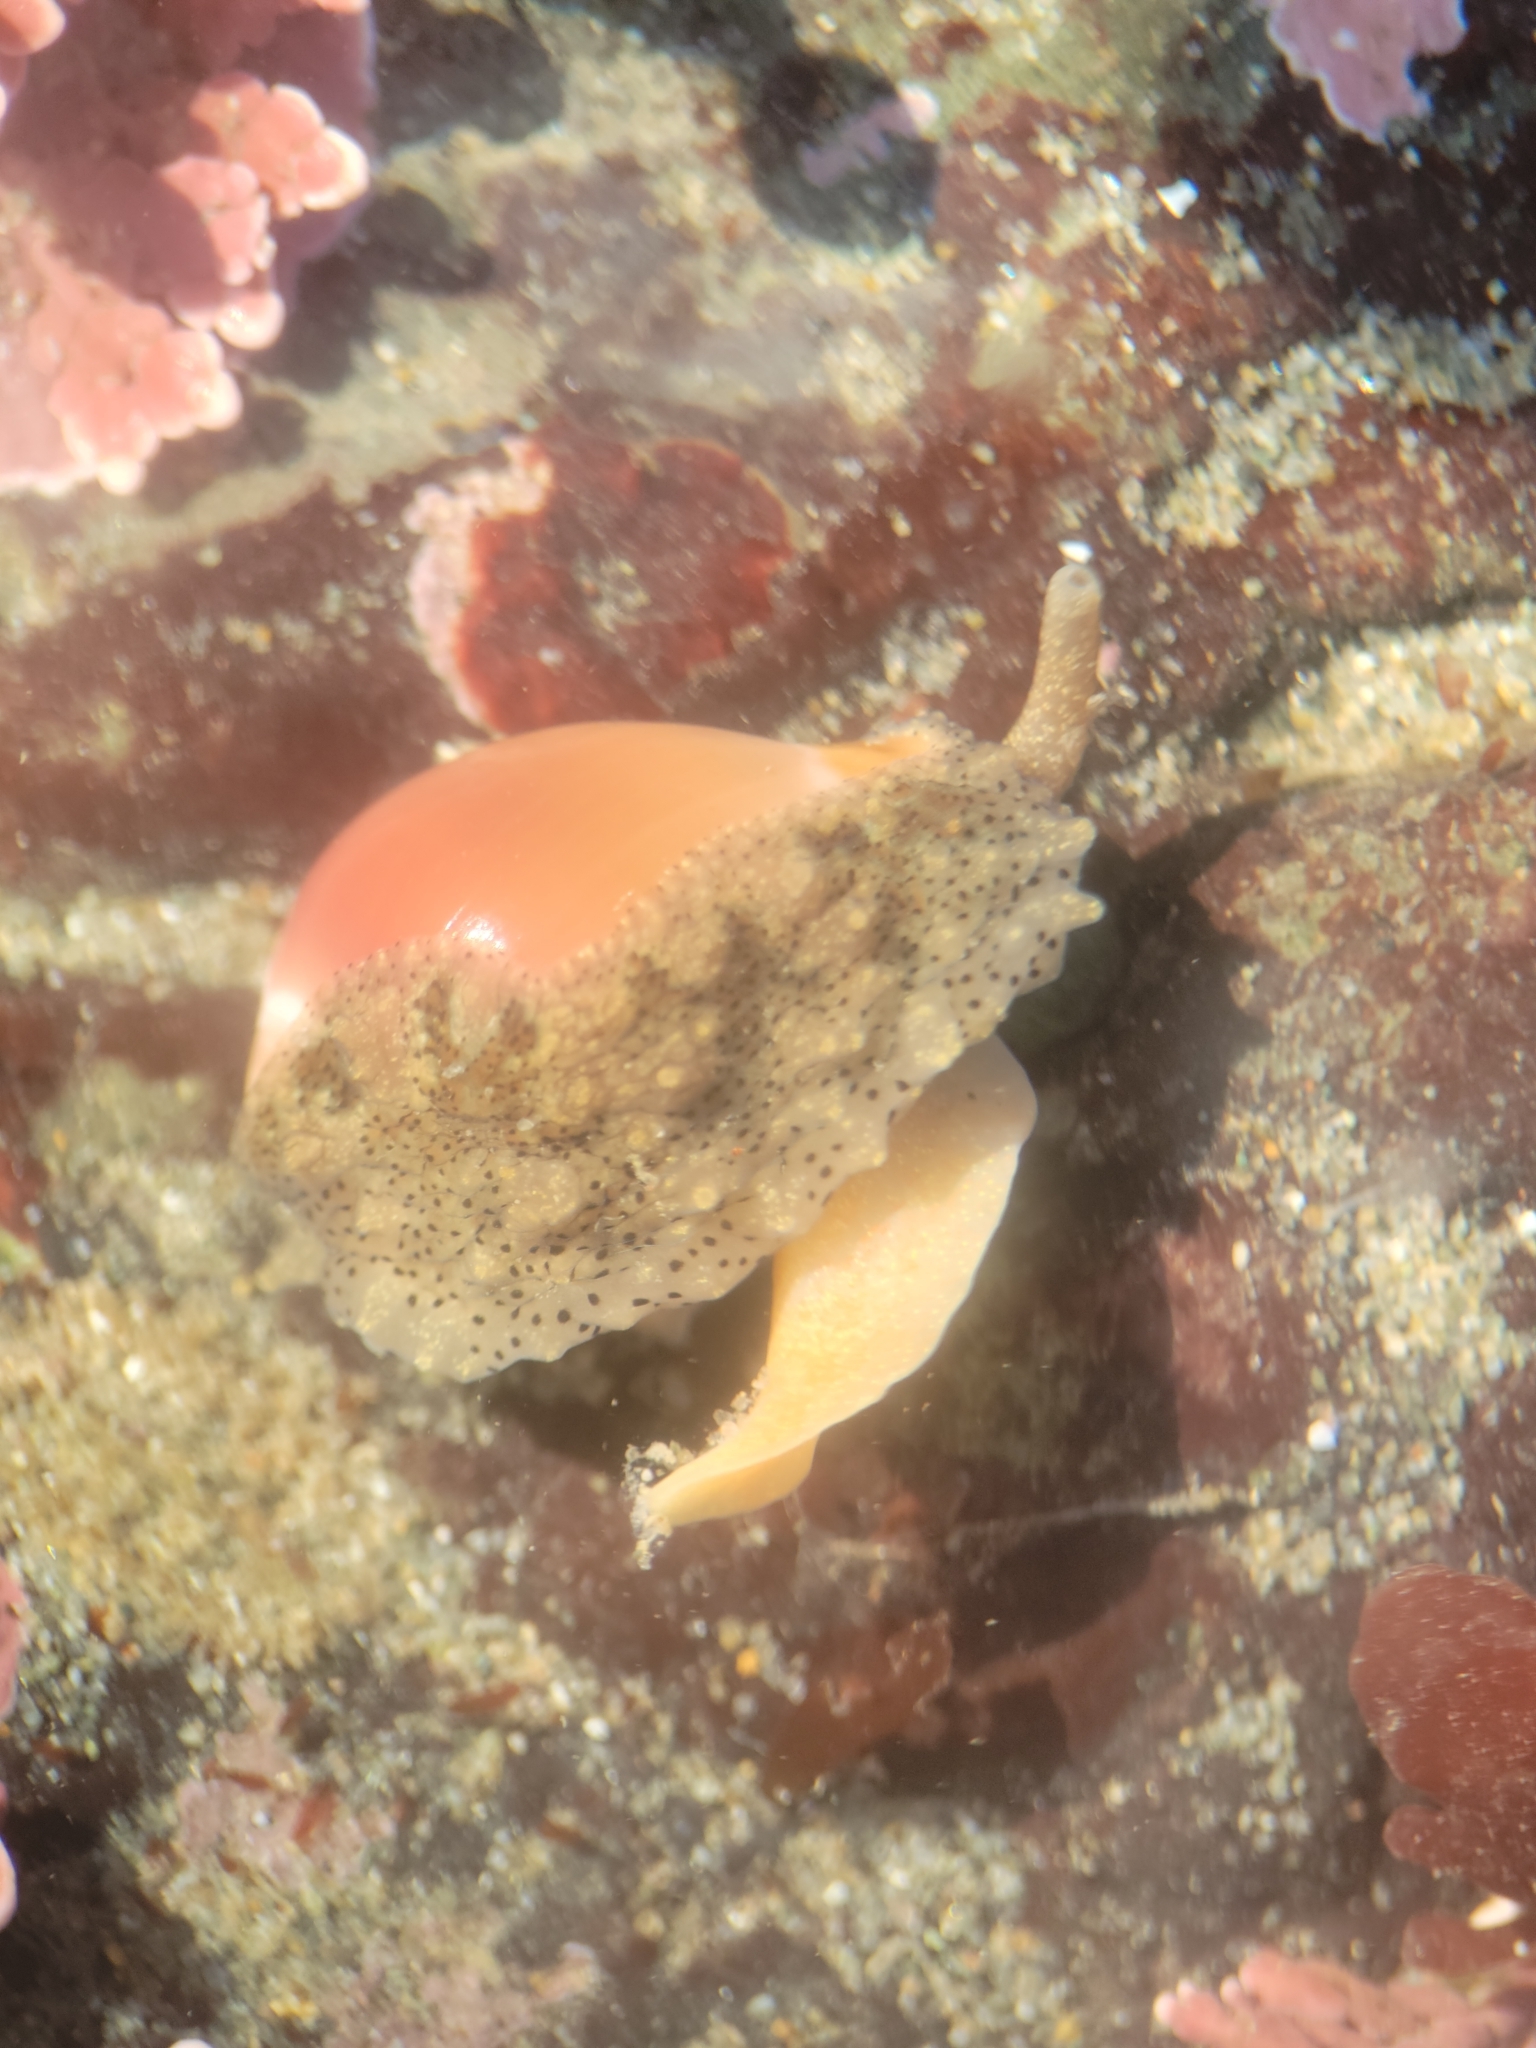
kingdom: Animalia
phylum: Mollusca
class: Gastropoda
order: Littorinimorpha
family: Eratoidae
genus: Hespererato
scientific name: Hespererato vitellina
